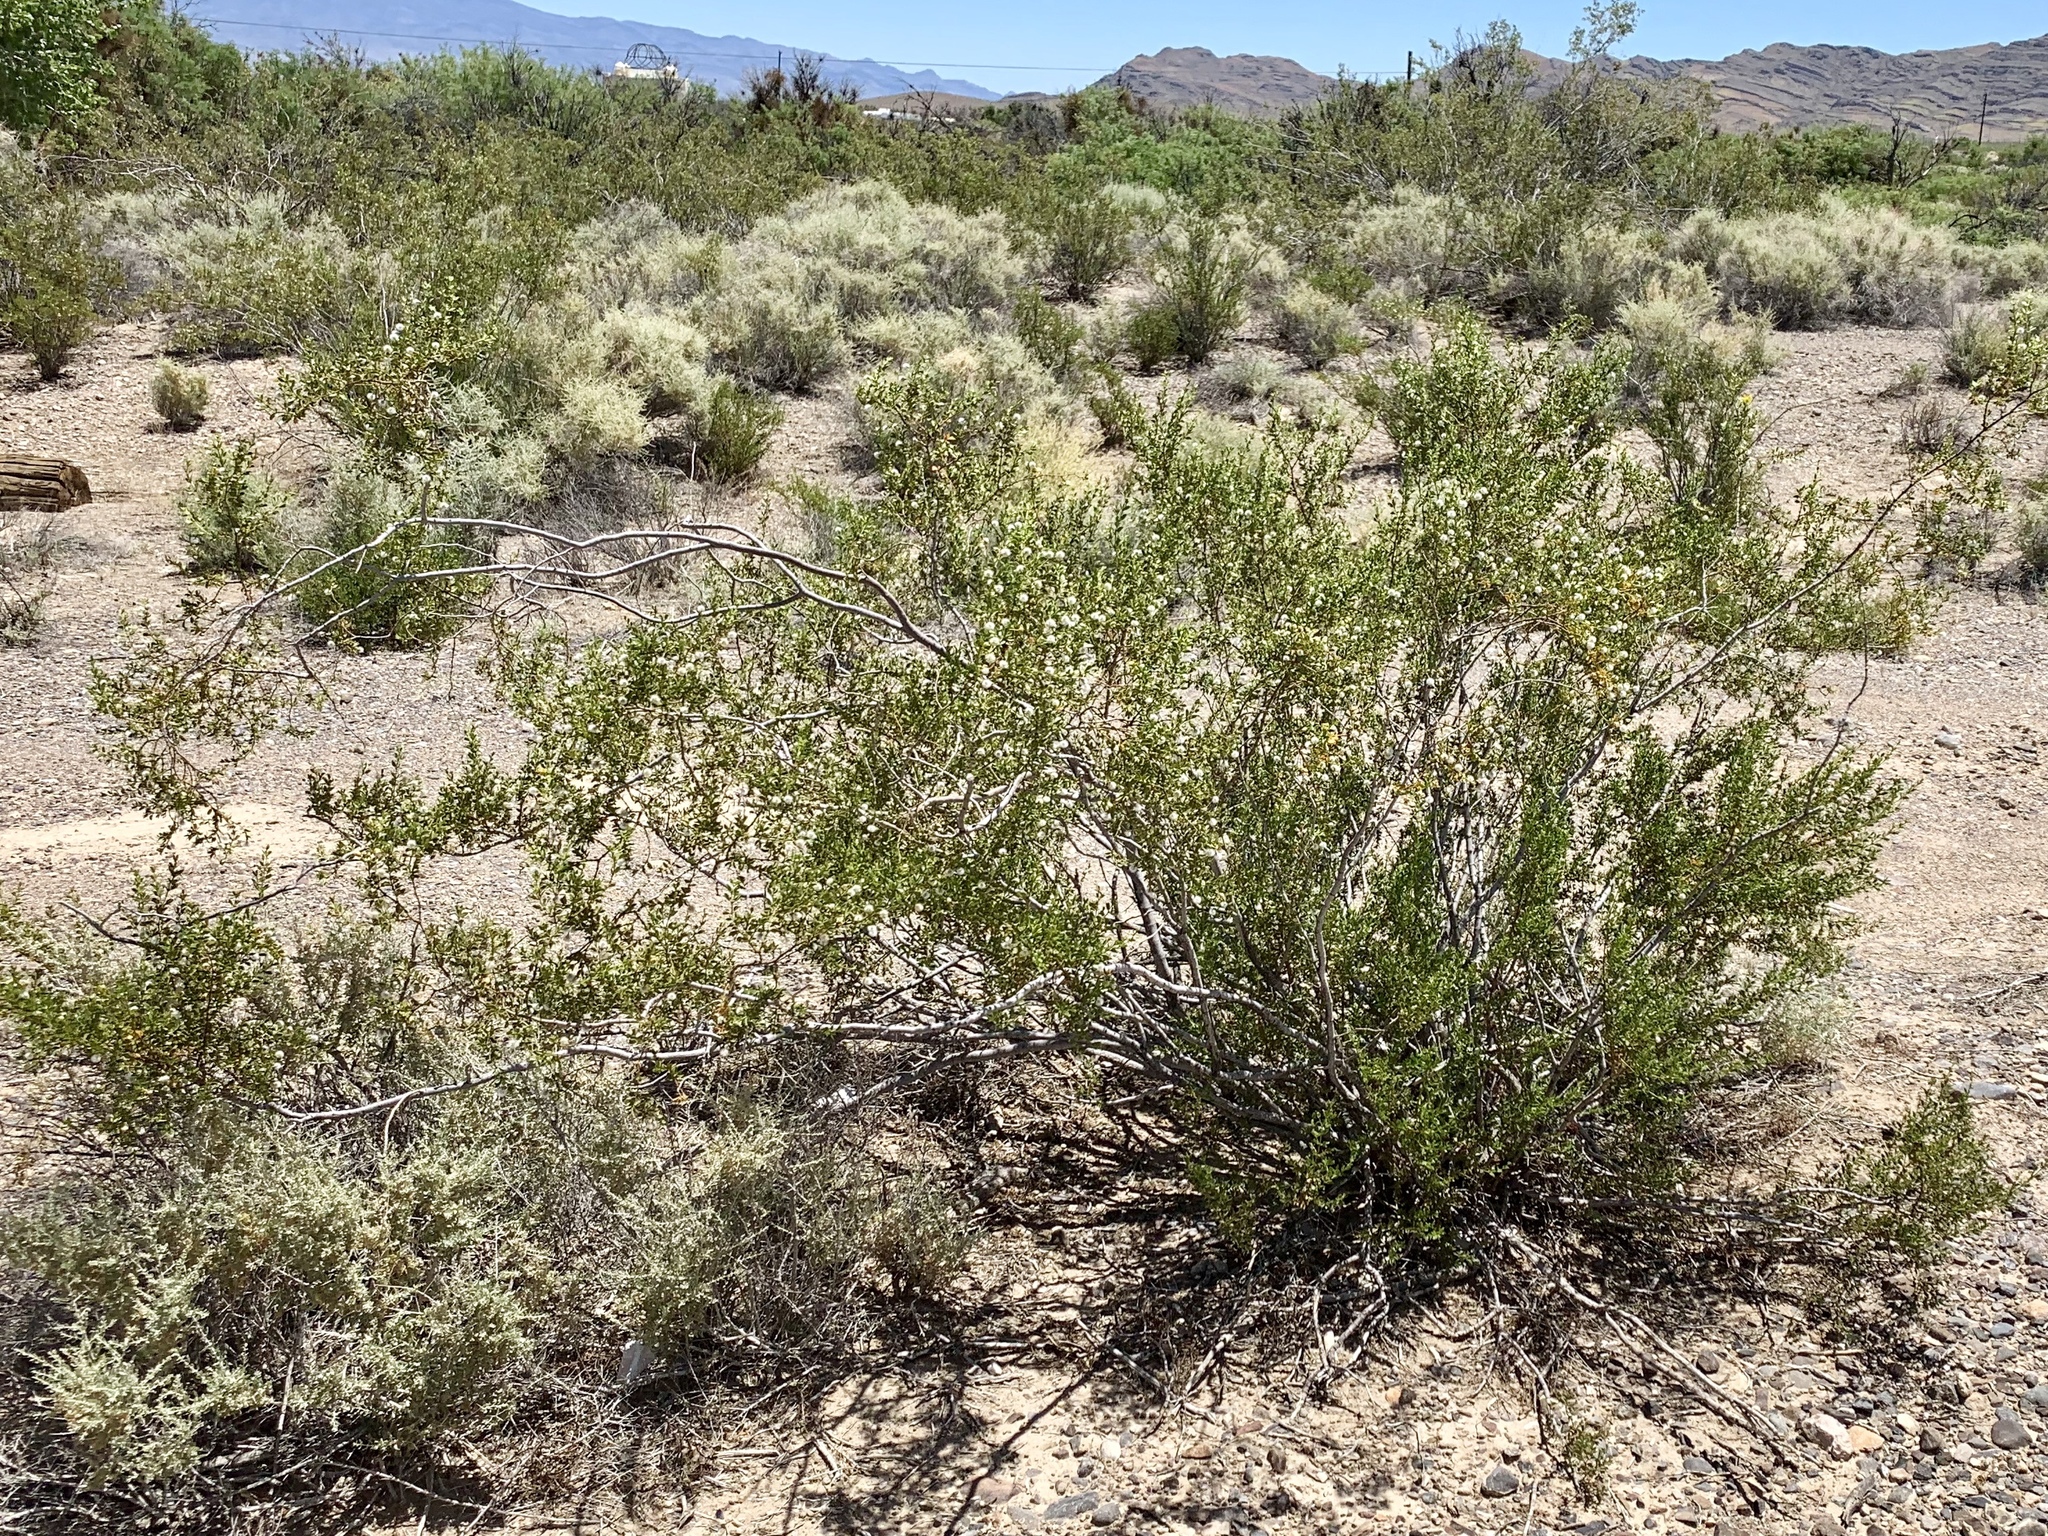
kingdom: Plantae
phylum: Tracheophyta
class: Magnoliopsida
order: Zygophyllales
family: Zygophyllaceae
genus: Larrea
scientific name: Larrea tridentata
